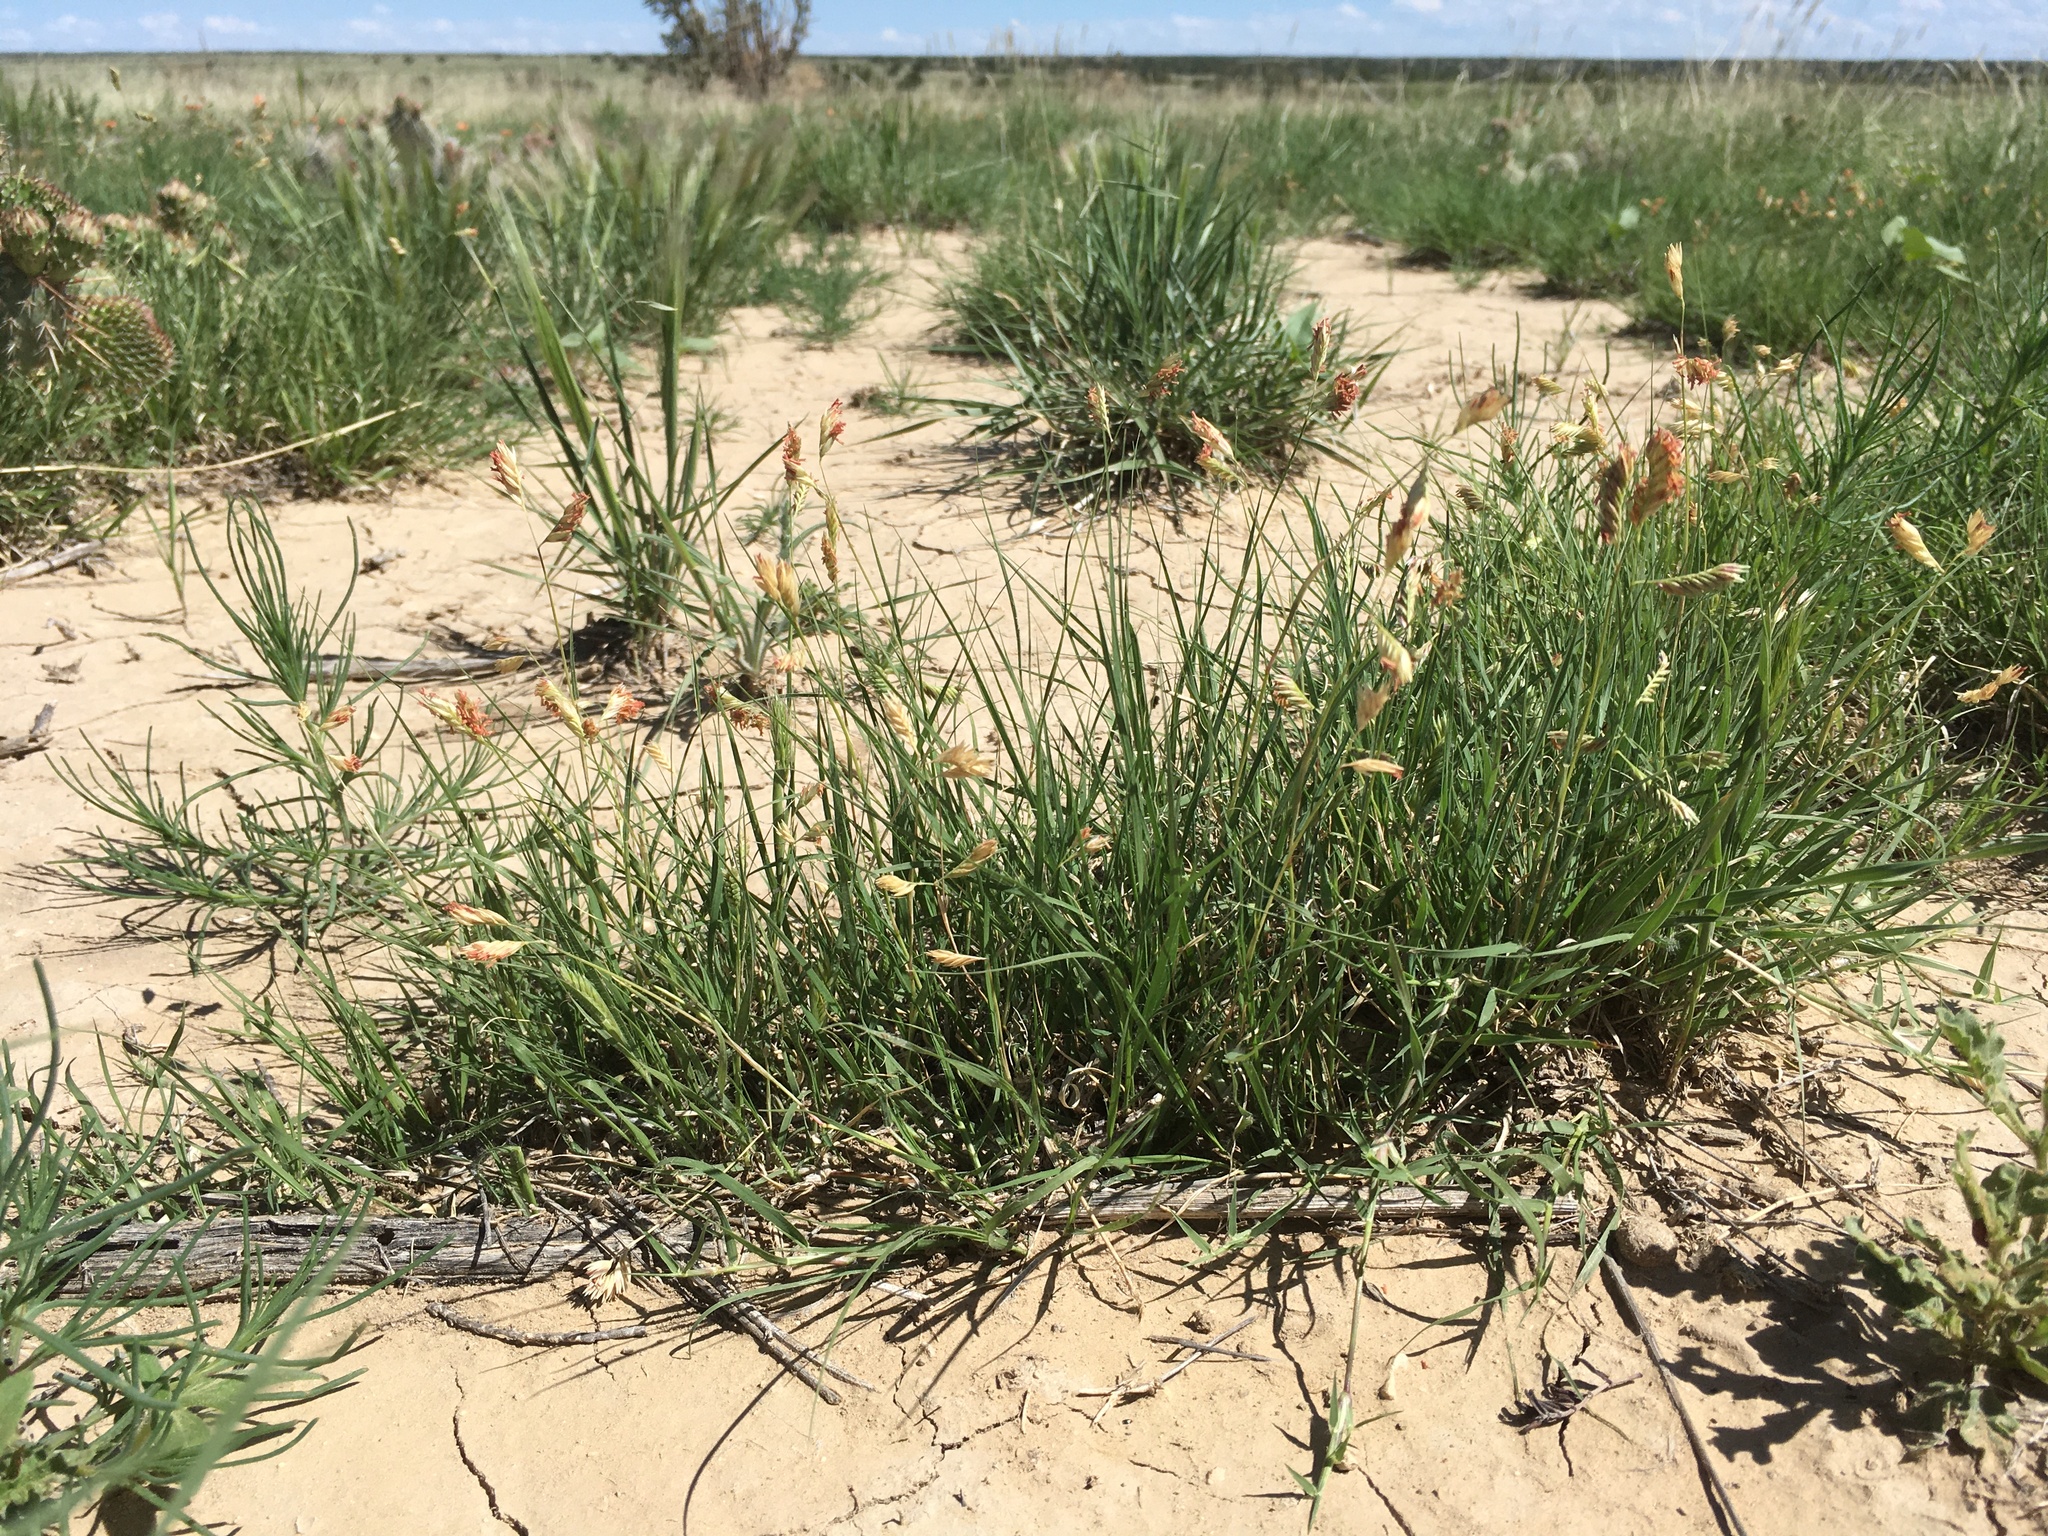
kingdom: Plantae
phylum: Tracheophyta
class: Liliopsida
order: Poales
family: Poaceae
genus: Bouteloua
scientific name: Bouteloua dactyloides
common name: Buffalo grass
